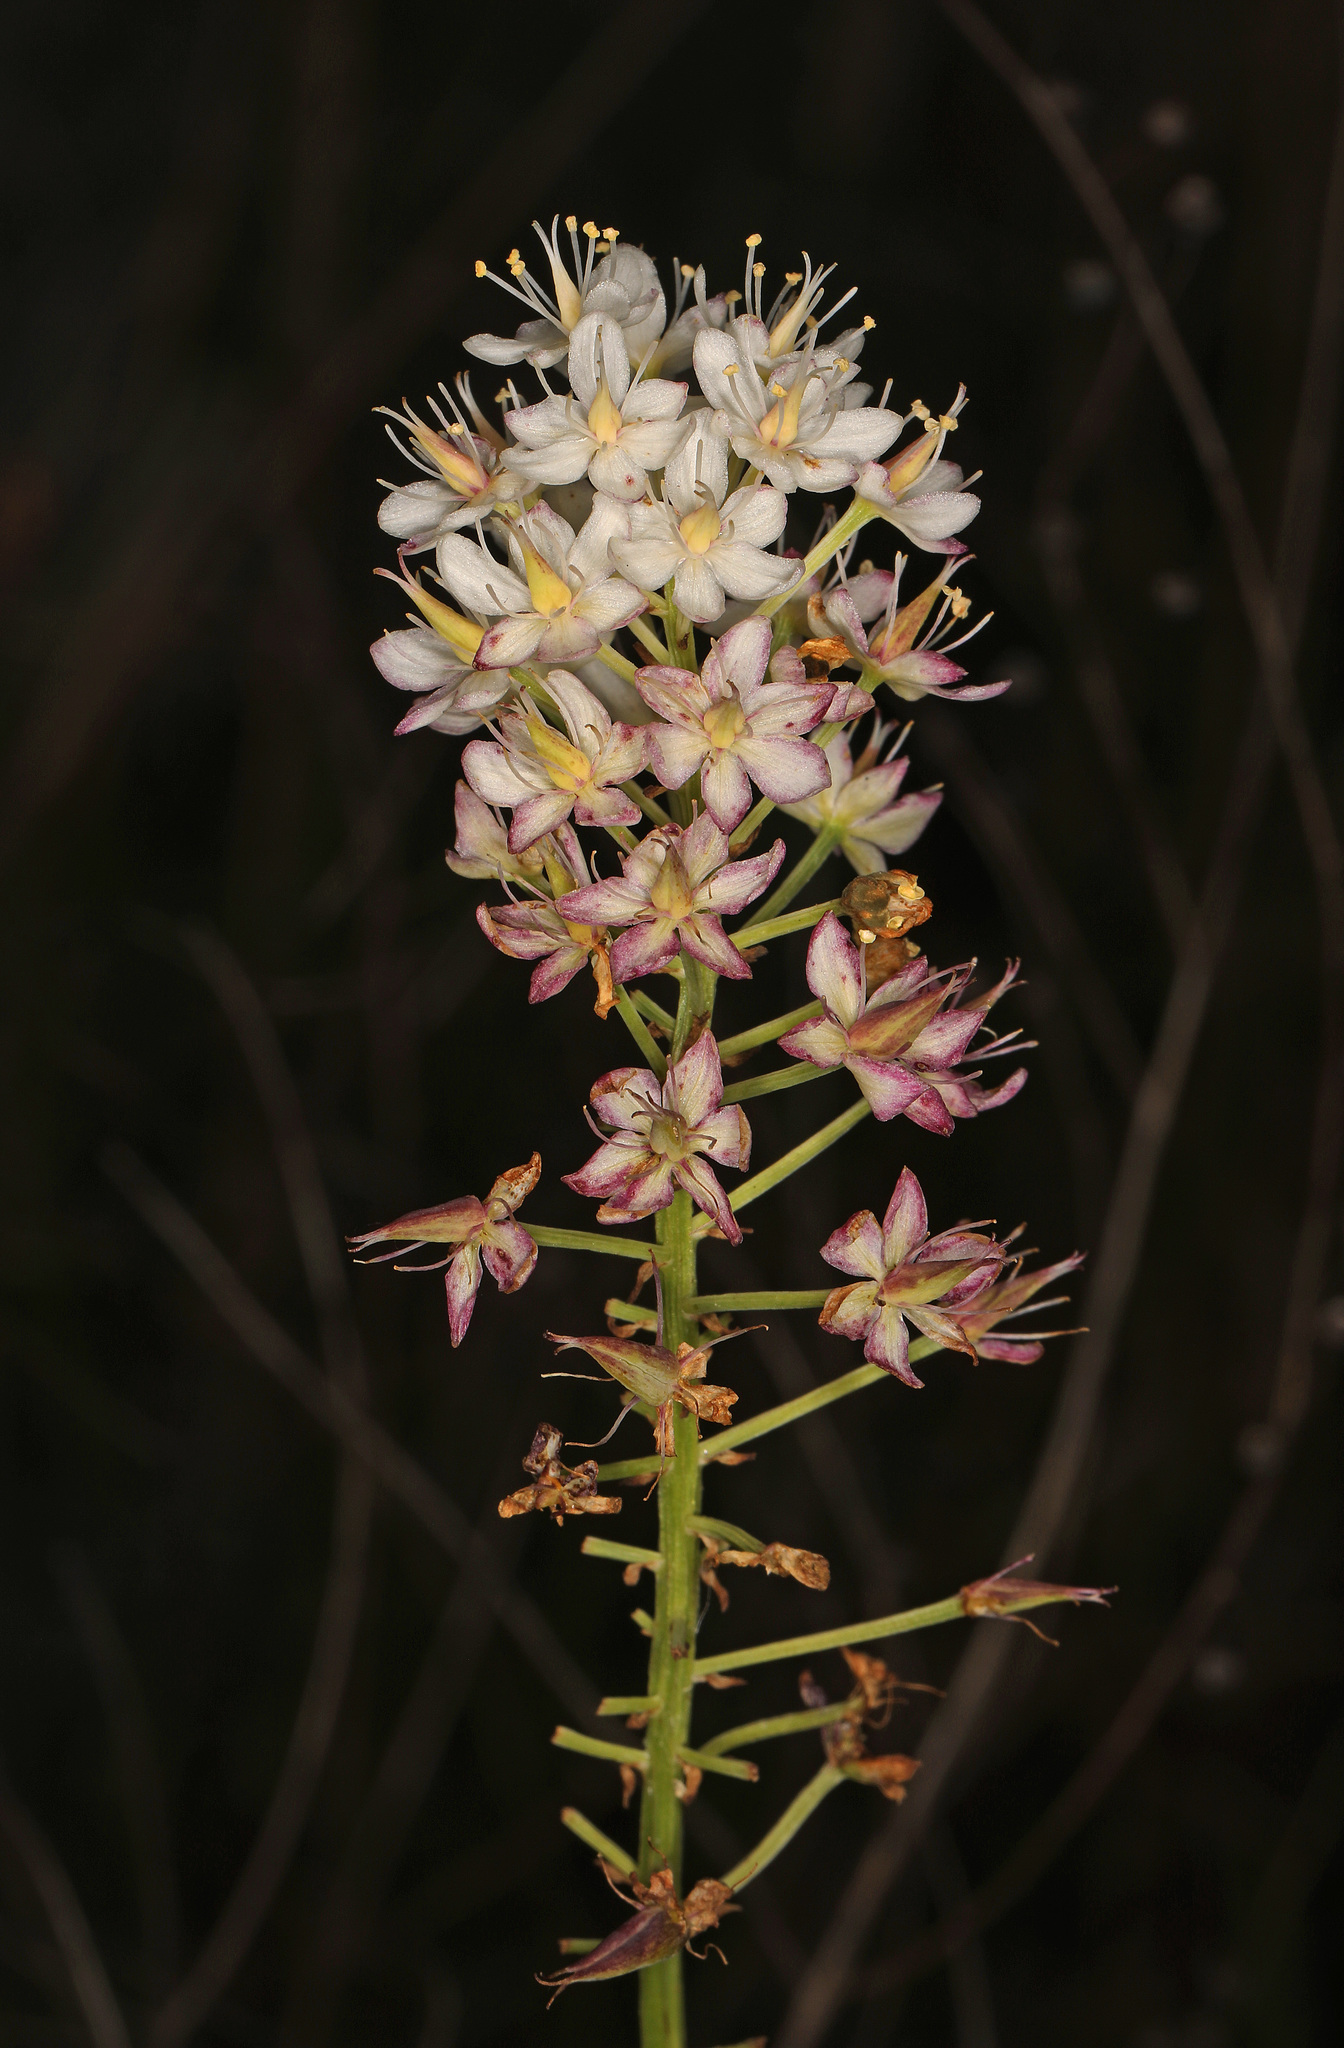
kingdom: Plantae
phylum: Tracheophyta
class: Liliopsida
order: Liliales
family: Melanthiaceae
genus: Stenanthium
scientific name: Stenanthium densum
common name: Crow-poison
